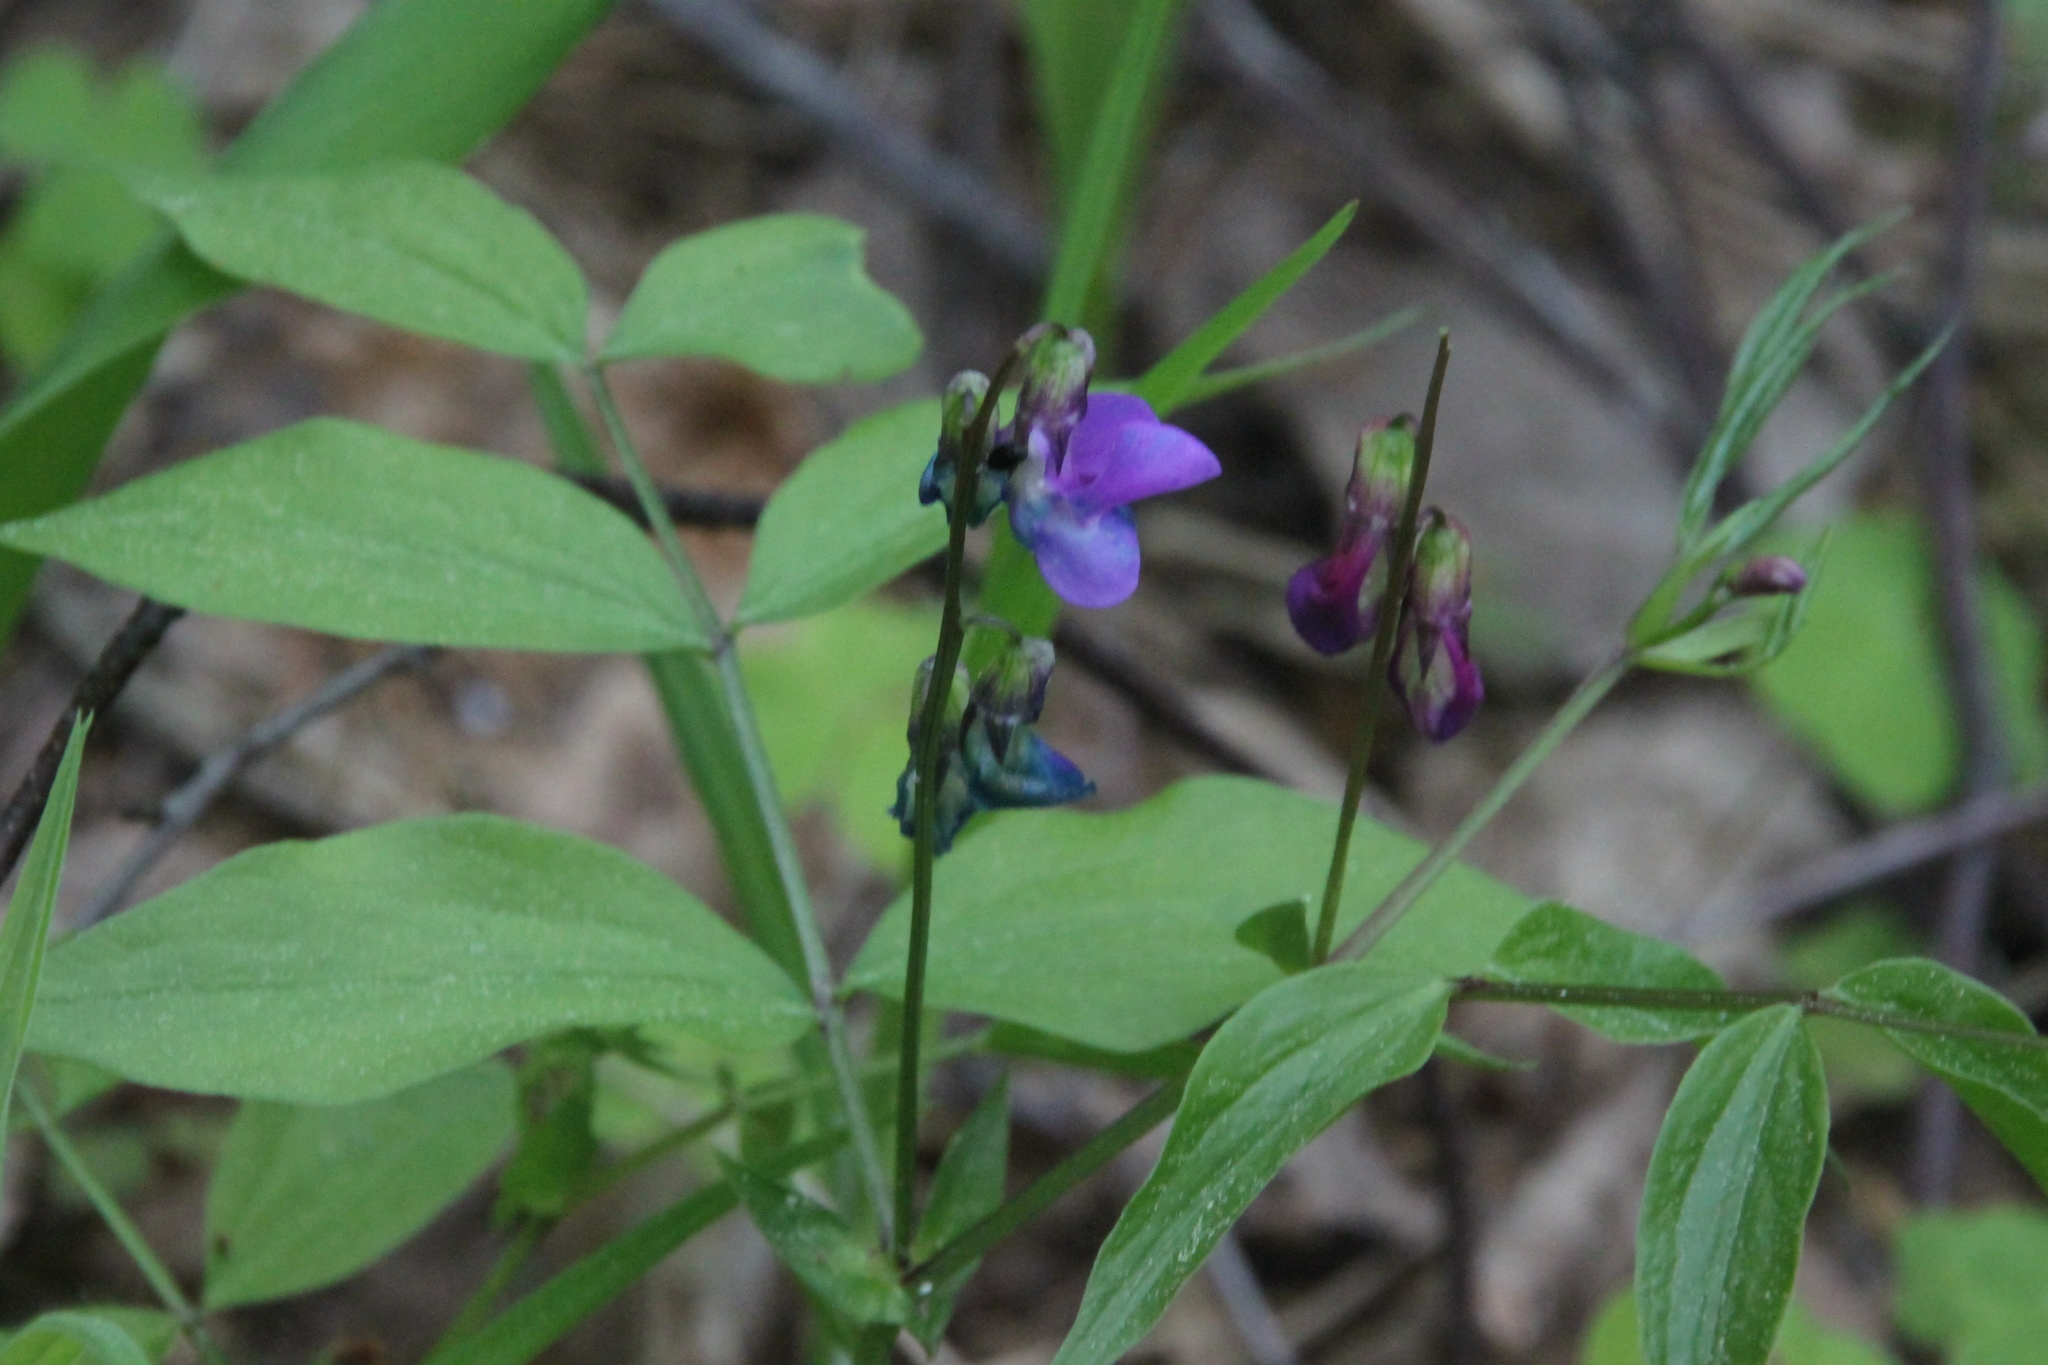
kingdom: Plantae
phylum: Tracheophyta
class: Magnoliopsida
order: Fabales
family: Fabaceae
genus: Lathyrus
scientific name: Lathyrus vernus
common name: Spring pea
